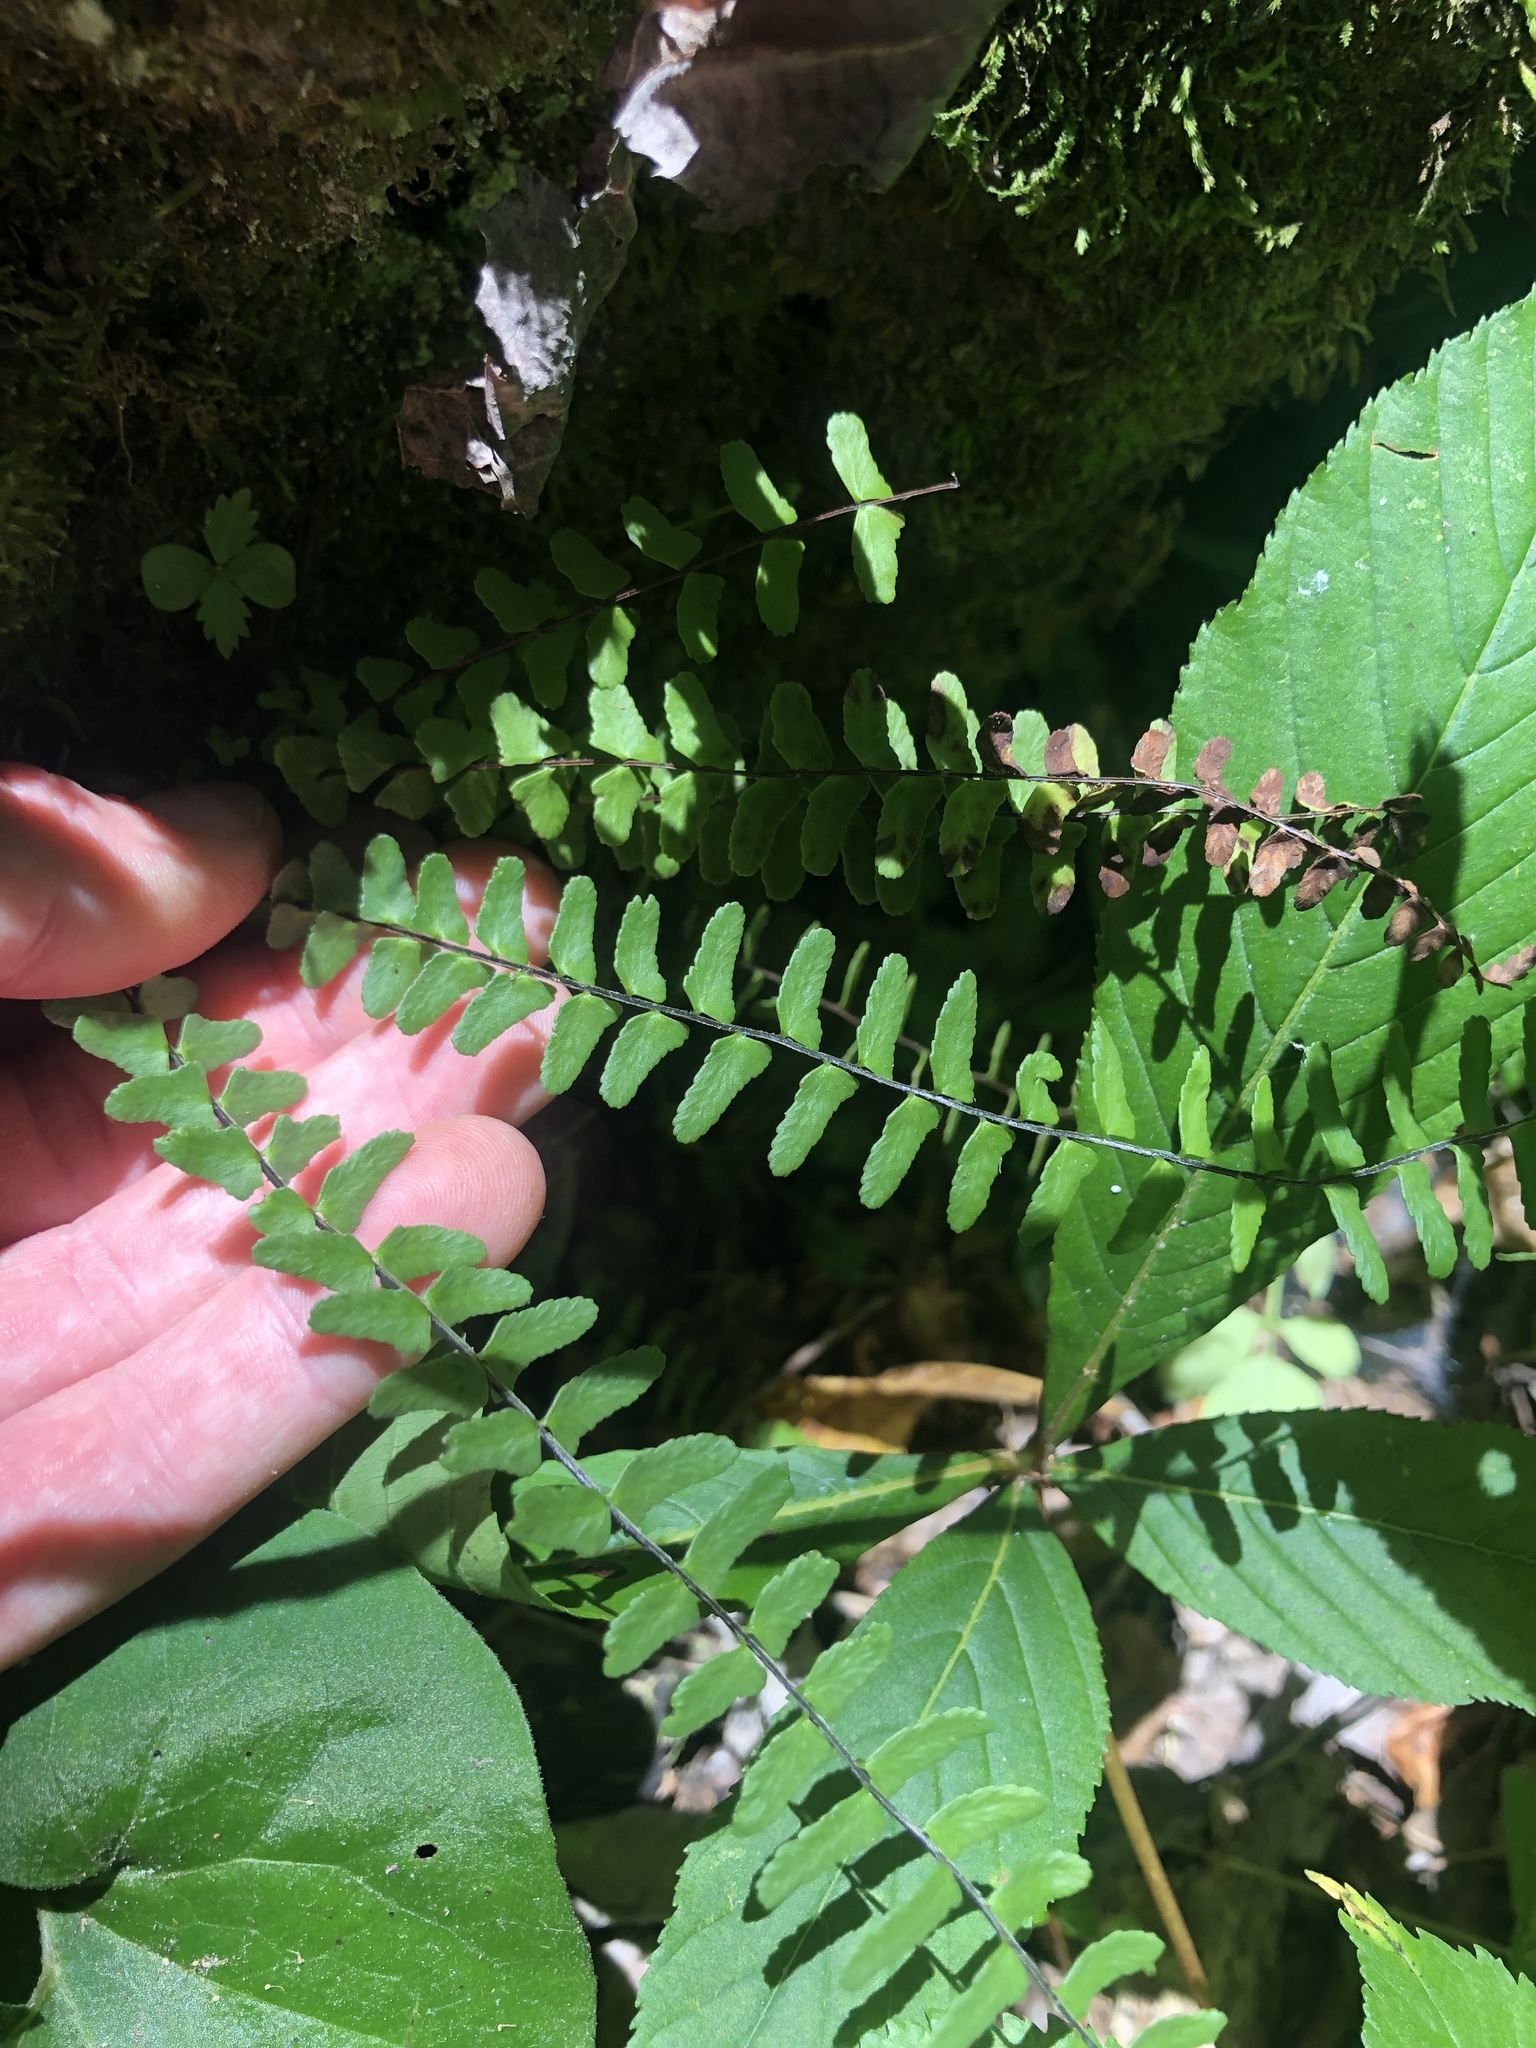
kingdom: Plantae
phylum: Tracheophyta
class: Polypodiopsida
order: Polypodiales
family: Aspleniaceae
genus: Asplenium
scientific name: Asplenium resiliens
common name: Blackstem spleenwort
